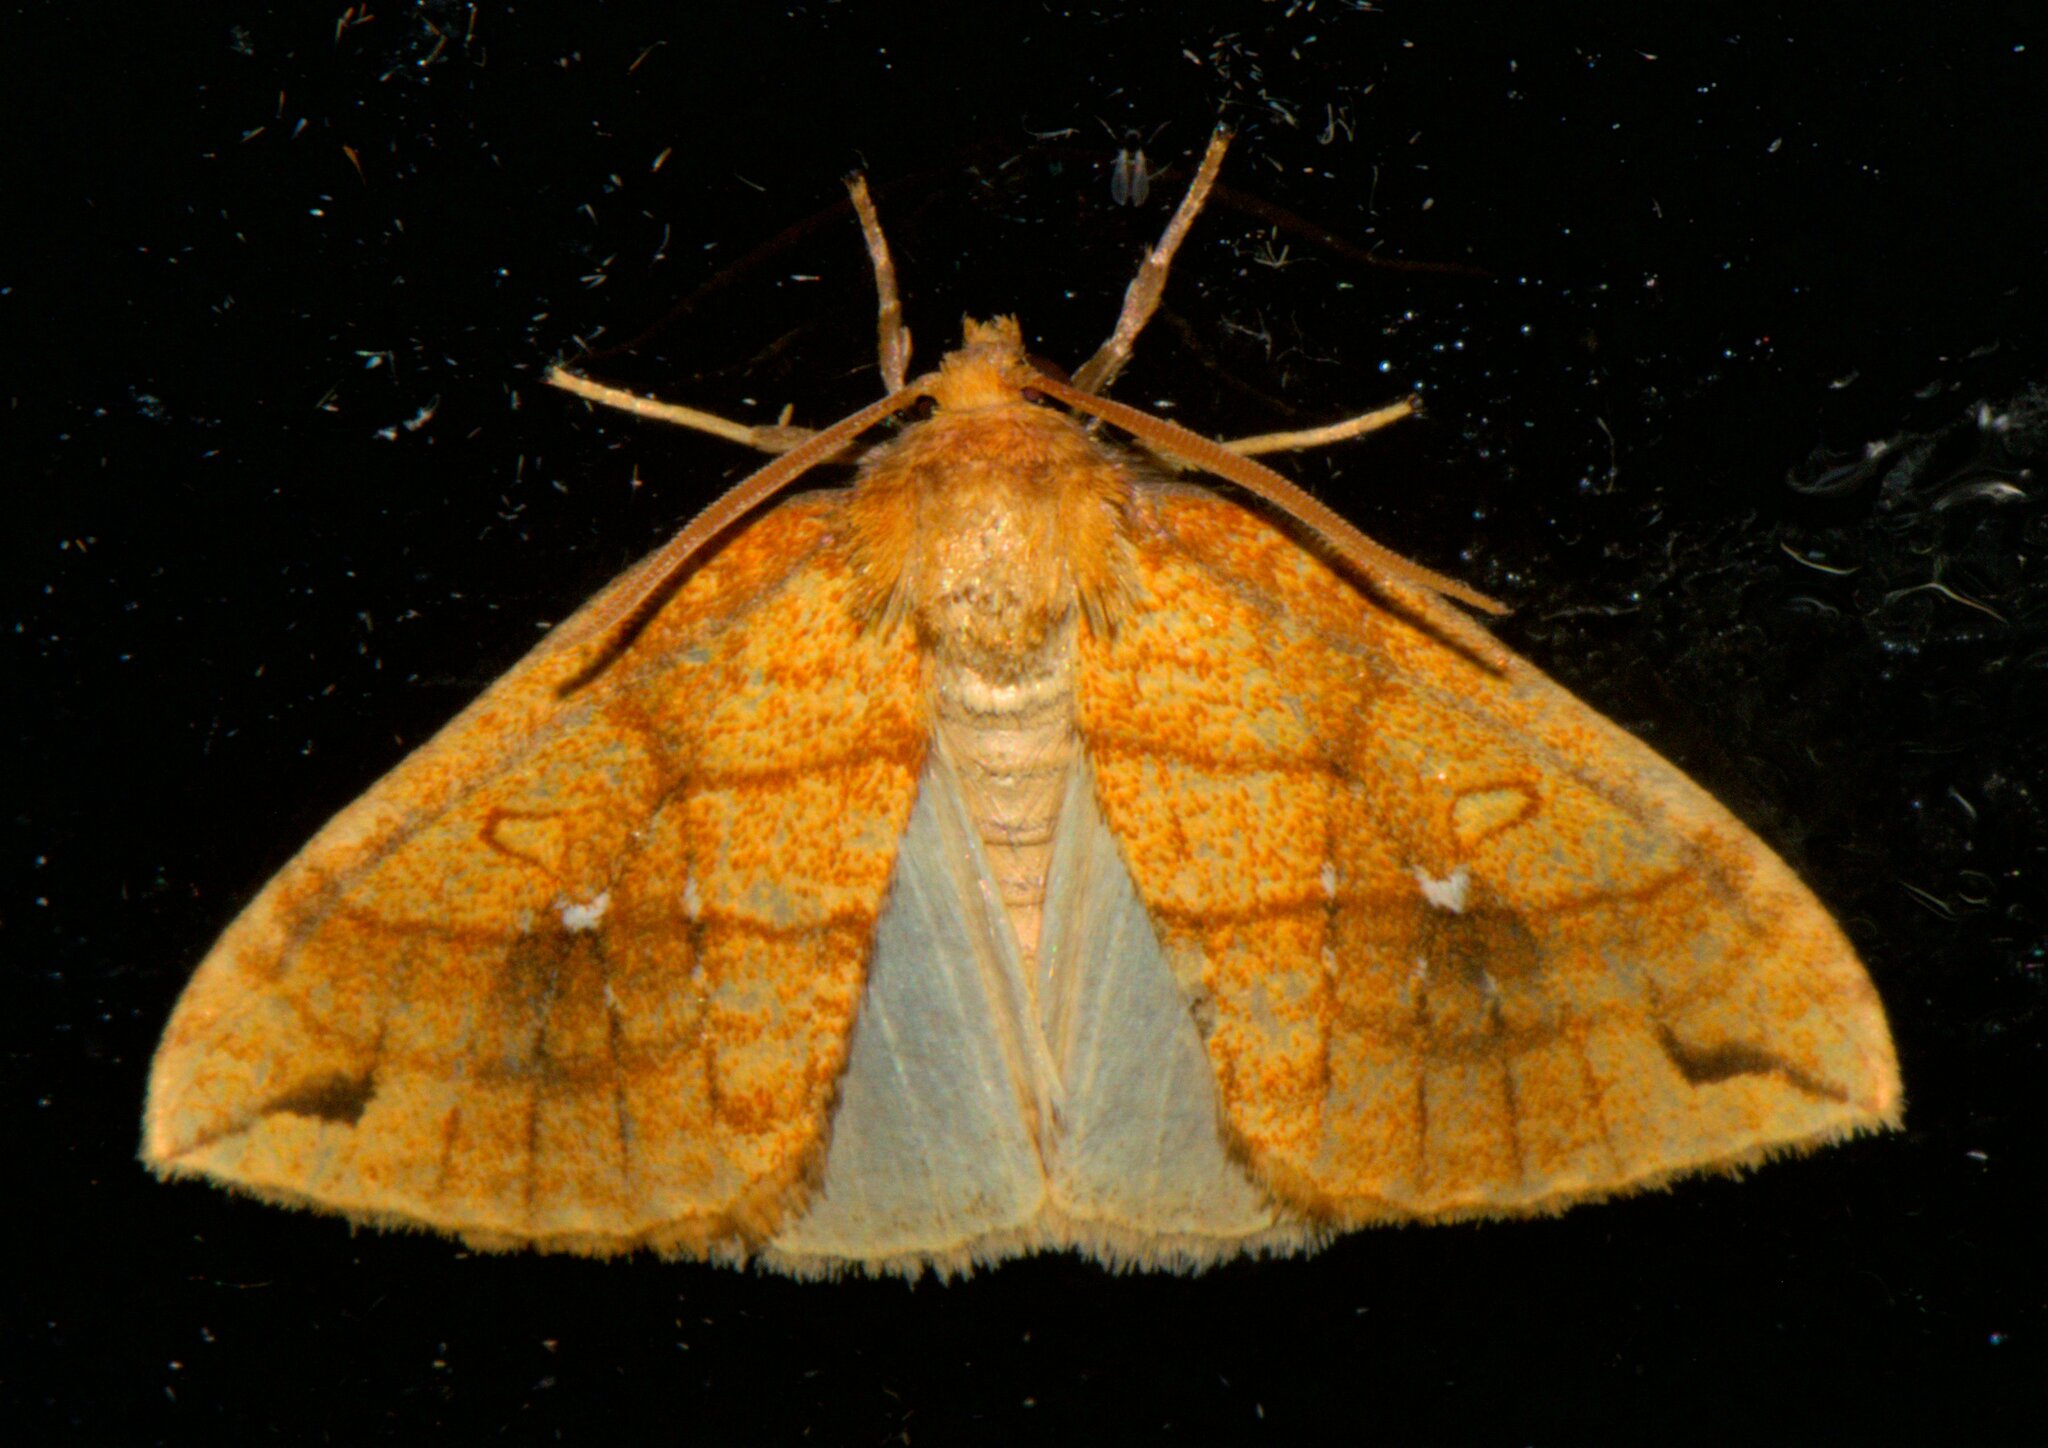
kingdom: Animalia
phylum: Arthropoda
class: Insecta
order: Lepidoptera
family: Noctuidae
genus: Xanthia
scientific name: Xanthia rectilineata
